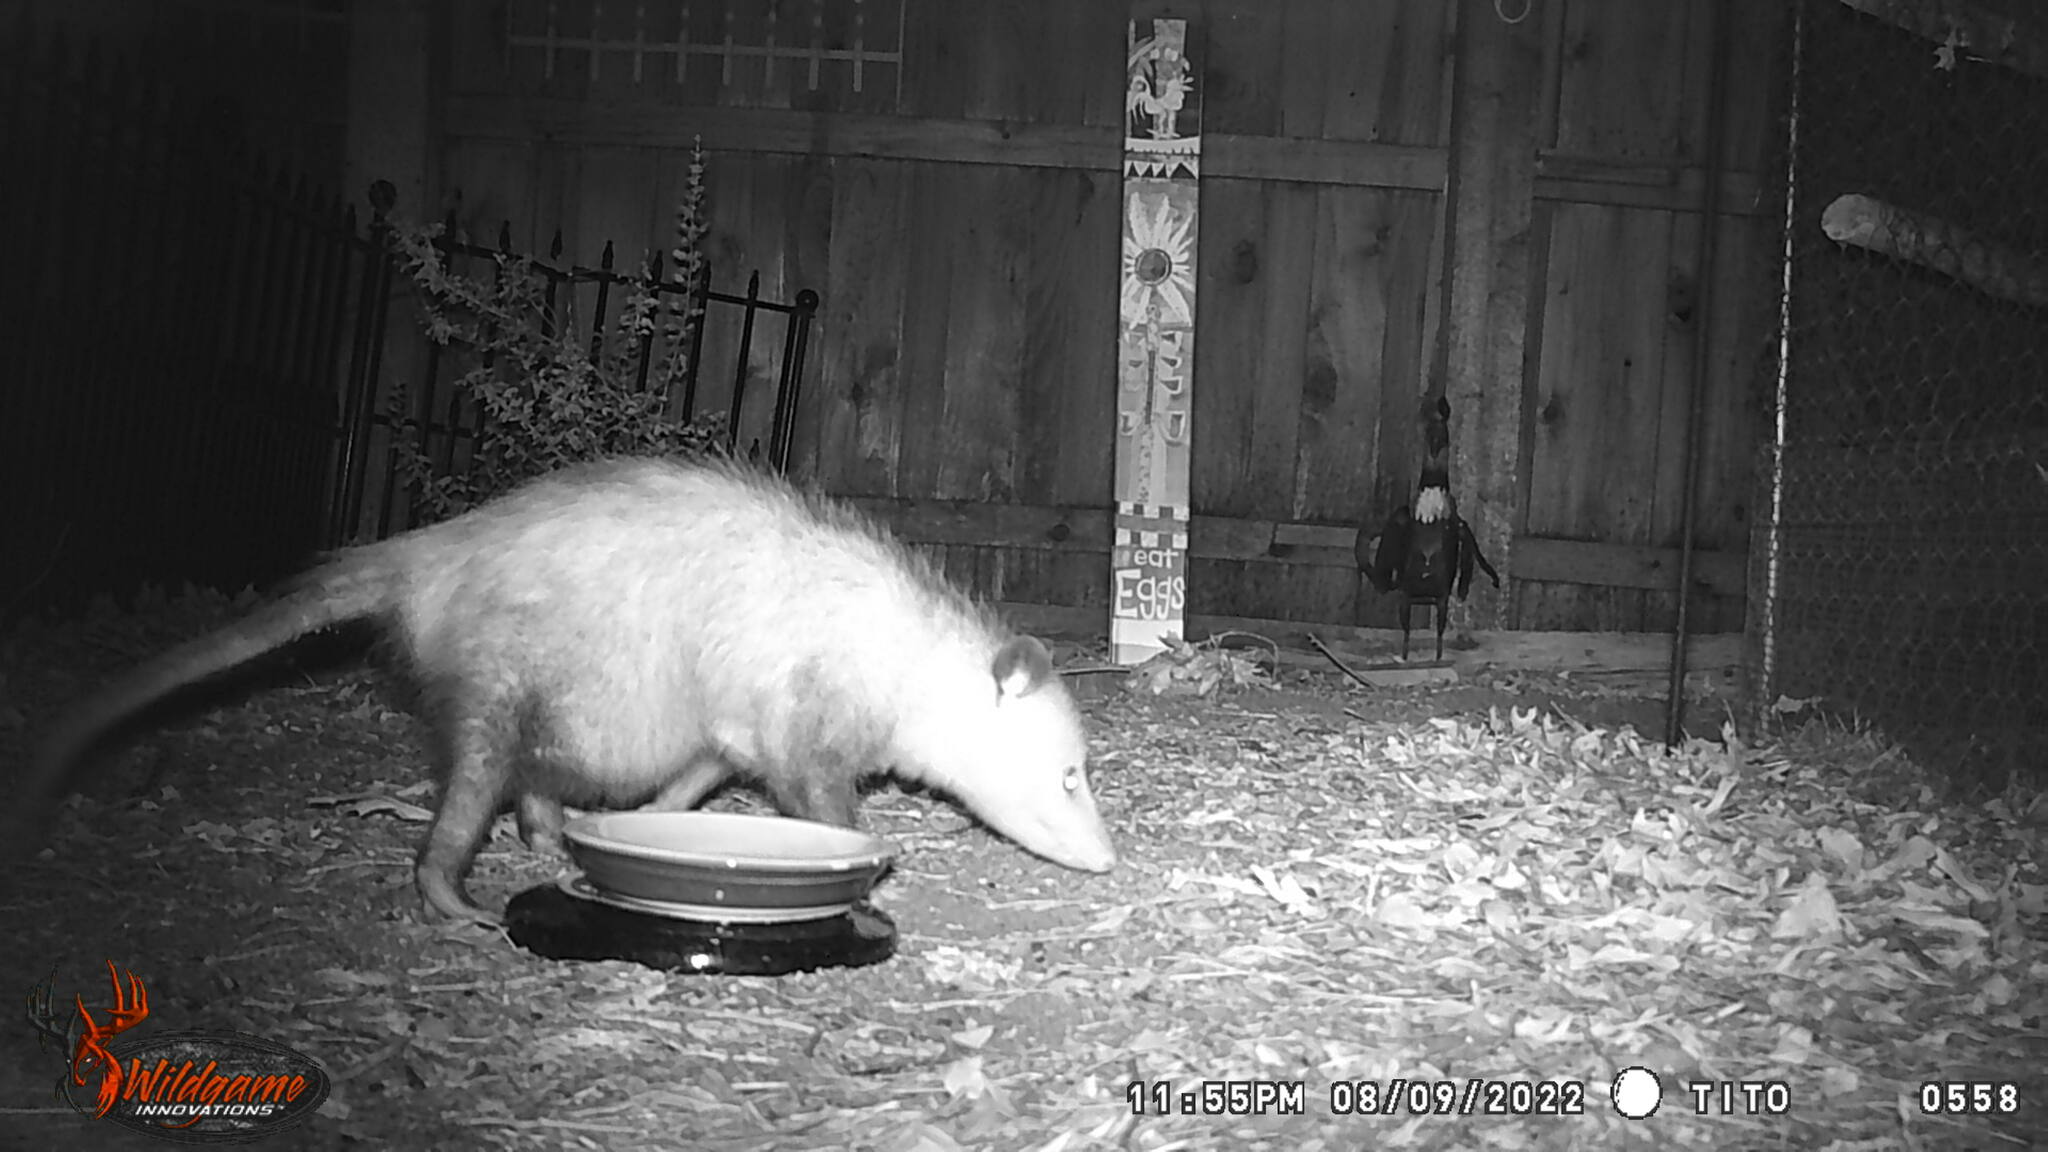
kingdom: Animalia
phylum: Chordata
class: Mammalia
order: Didelphimorphia
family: Didelphidae
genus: Didelphis
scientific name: Didelphis virginiana
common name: Virginia opossum
